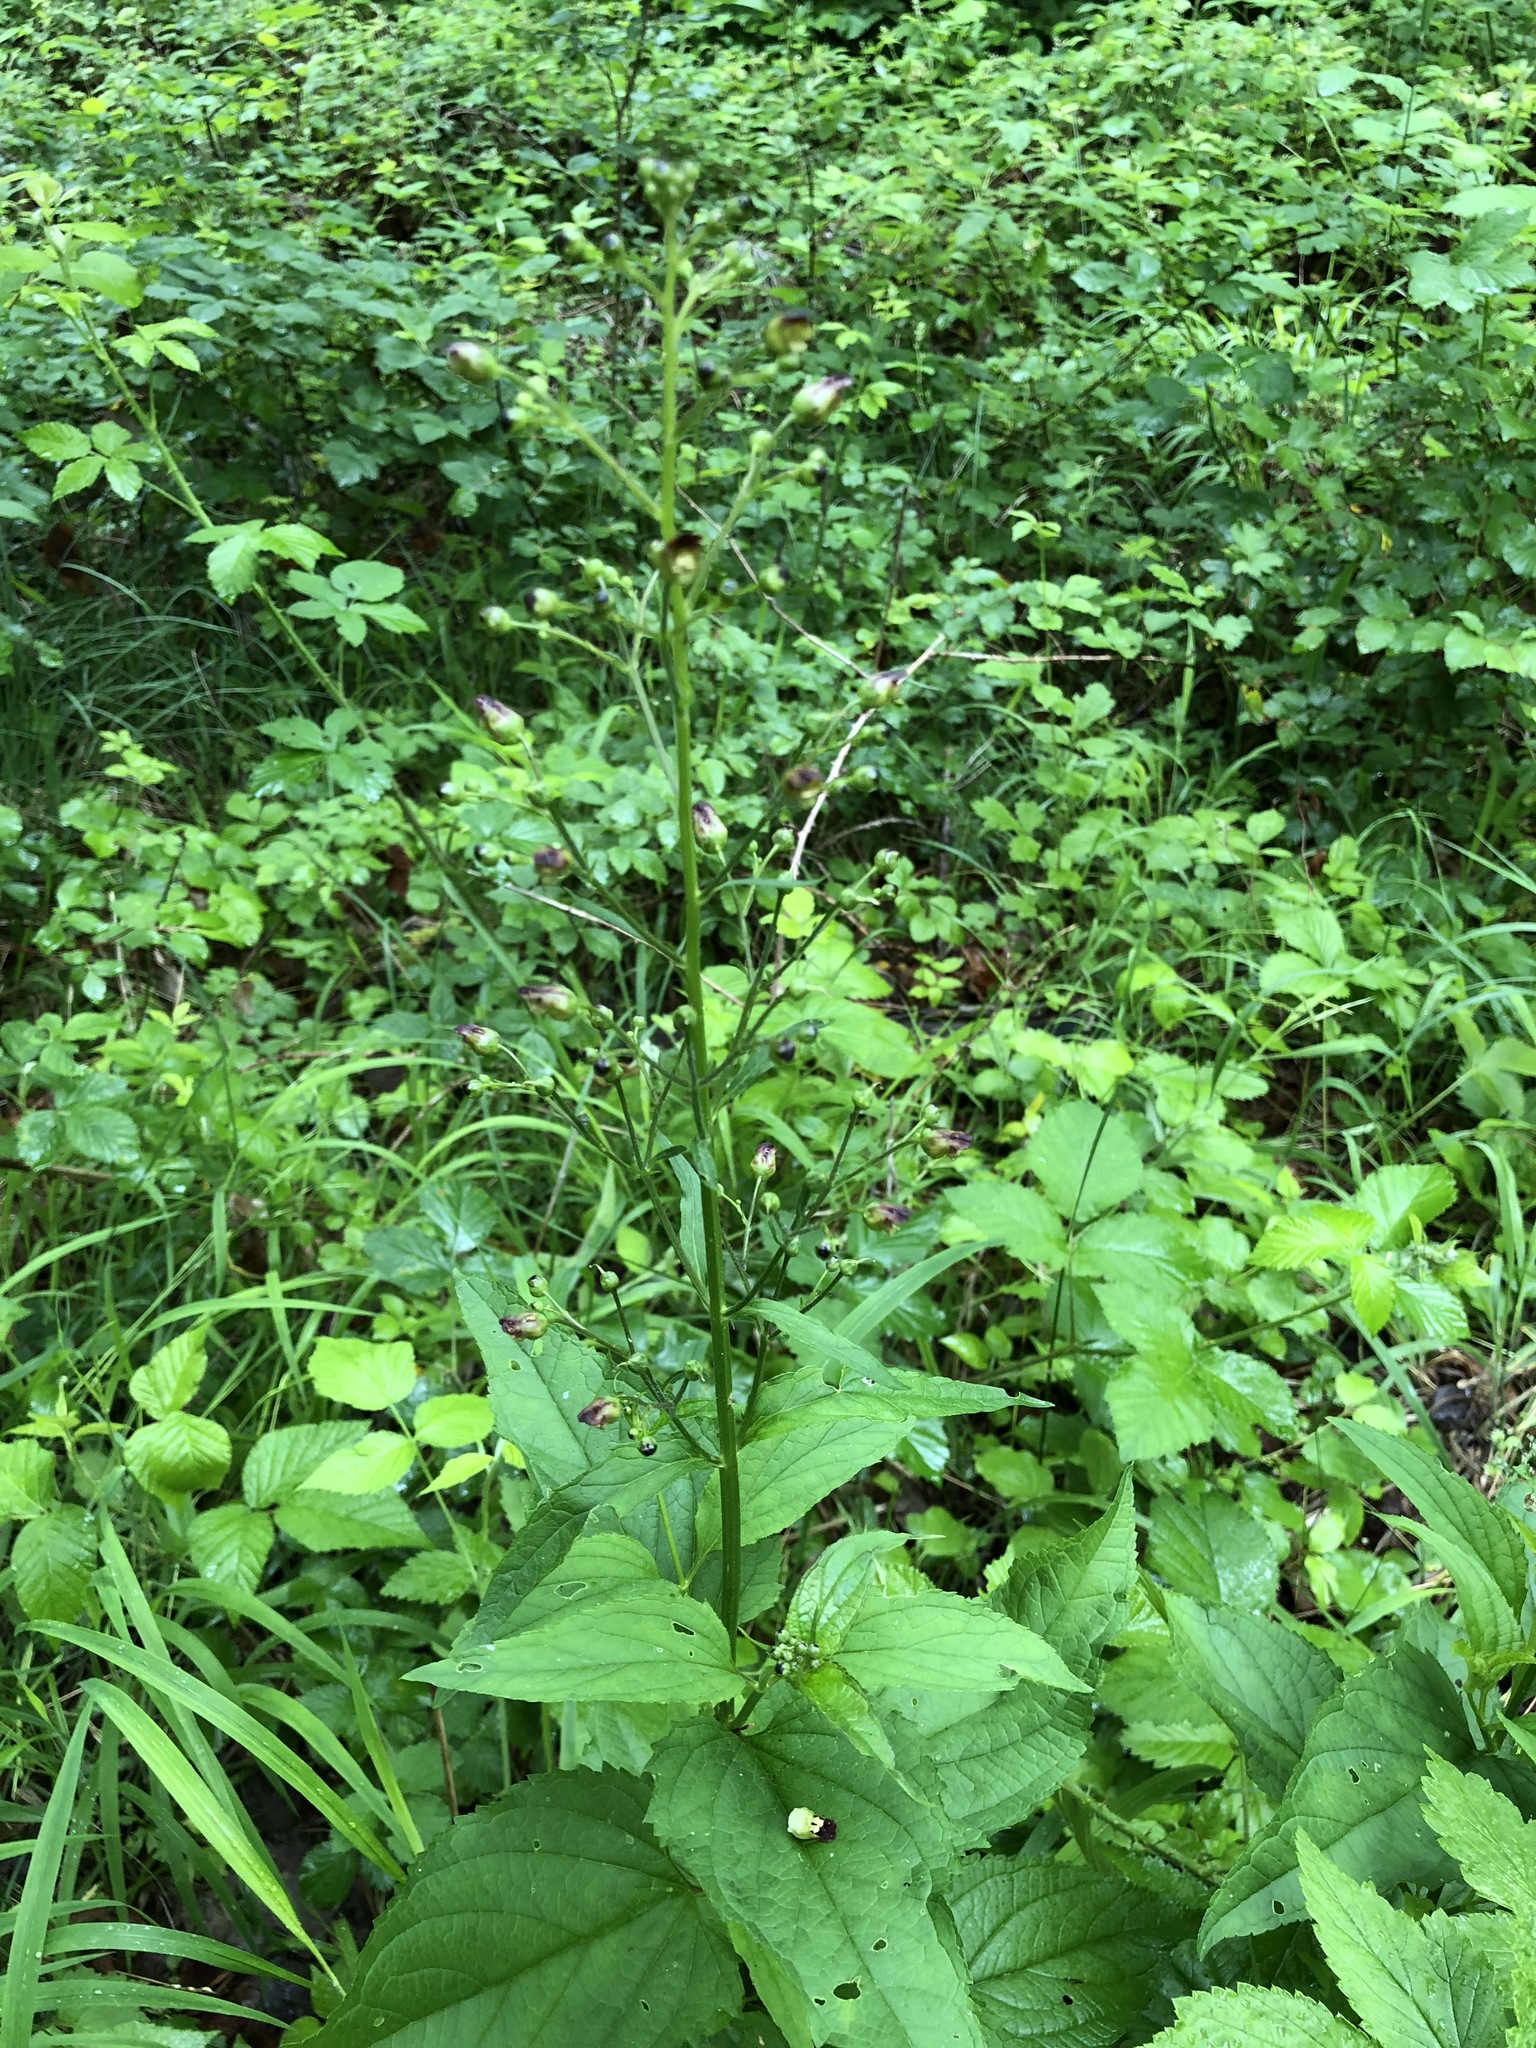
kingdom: Plantae
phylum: Tracheophyta
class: Magnoliopsida
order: Lamiales
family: Scrophulariaceae
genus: Scrophularia
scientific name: Scrophularia nodosa
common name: Common figwort
